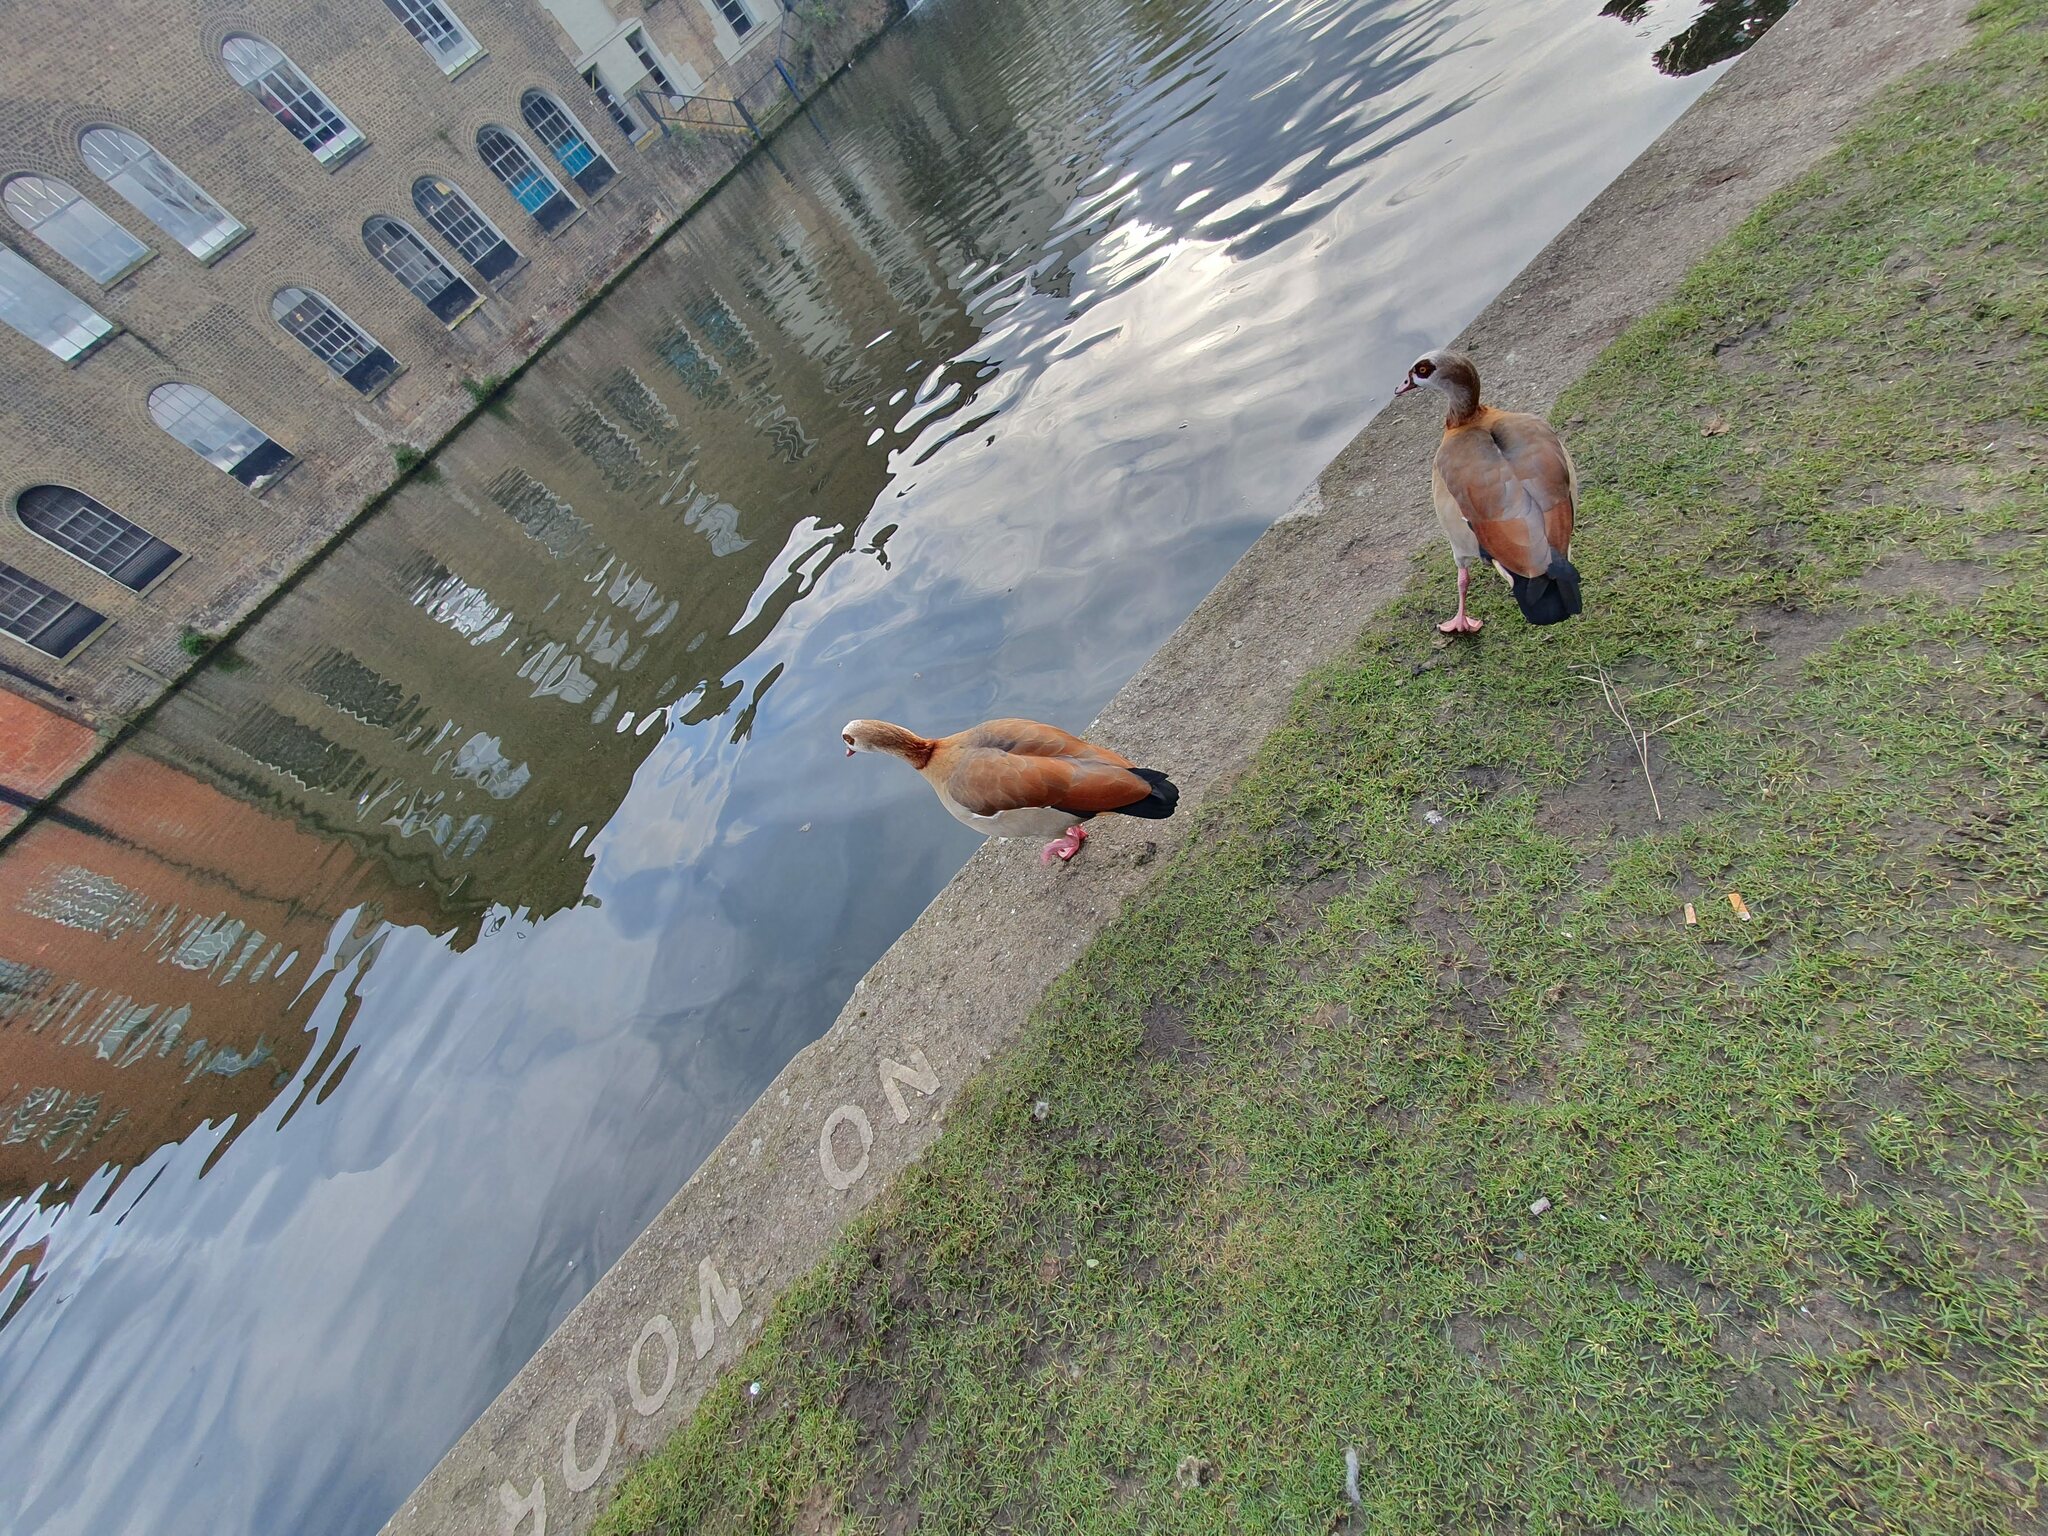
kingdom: Animalia
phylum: Chordata
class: Aves
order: Anseriformes
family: Anatidae
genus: Alopochen
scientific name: Alopochen aegyptiaca
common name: Egyptian goose
